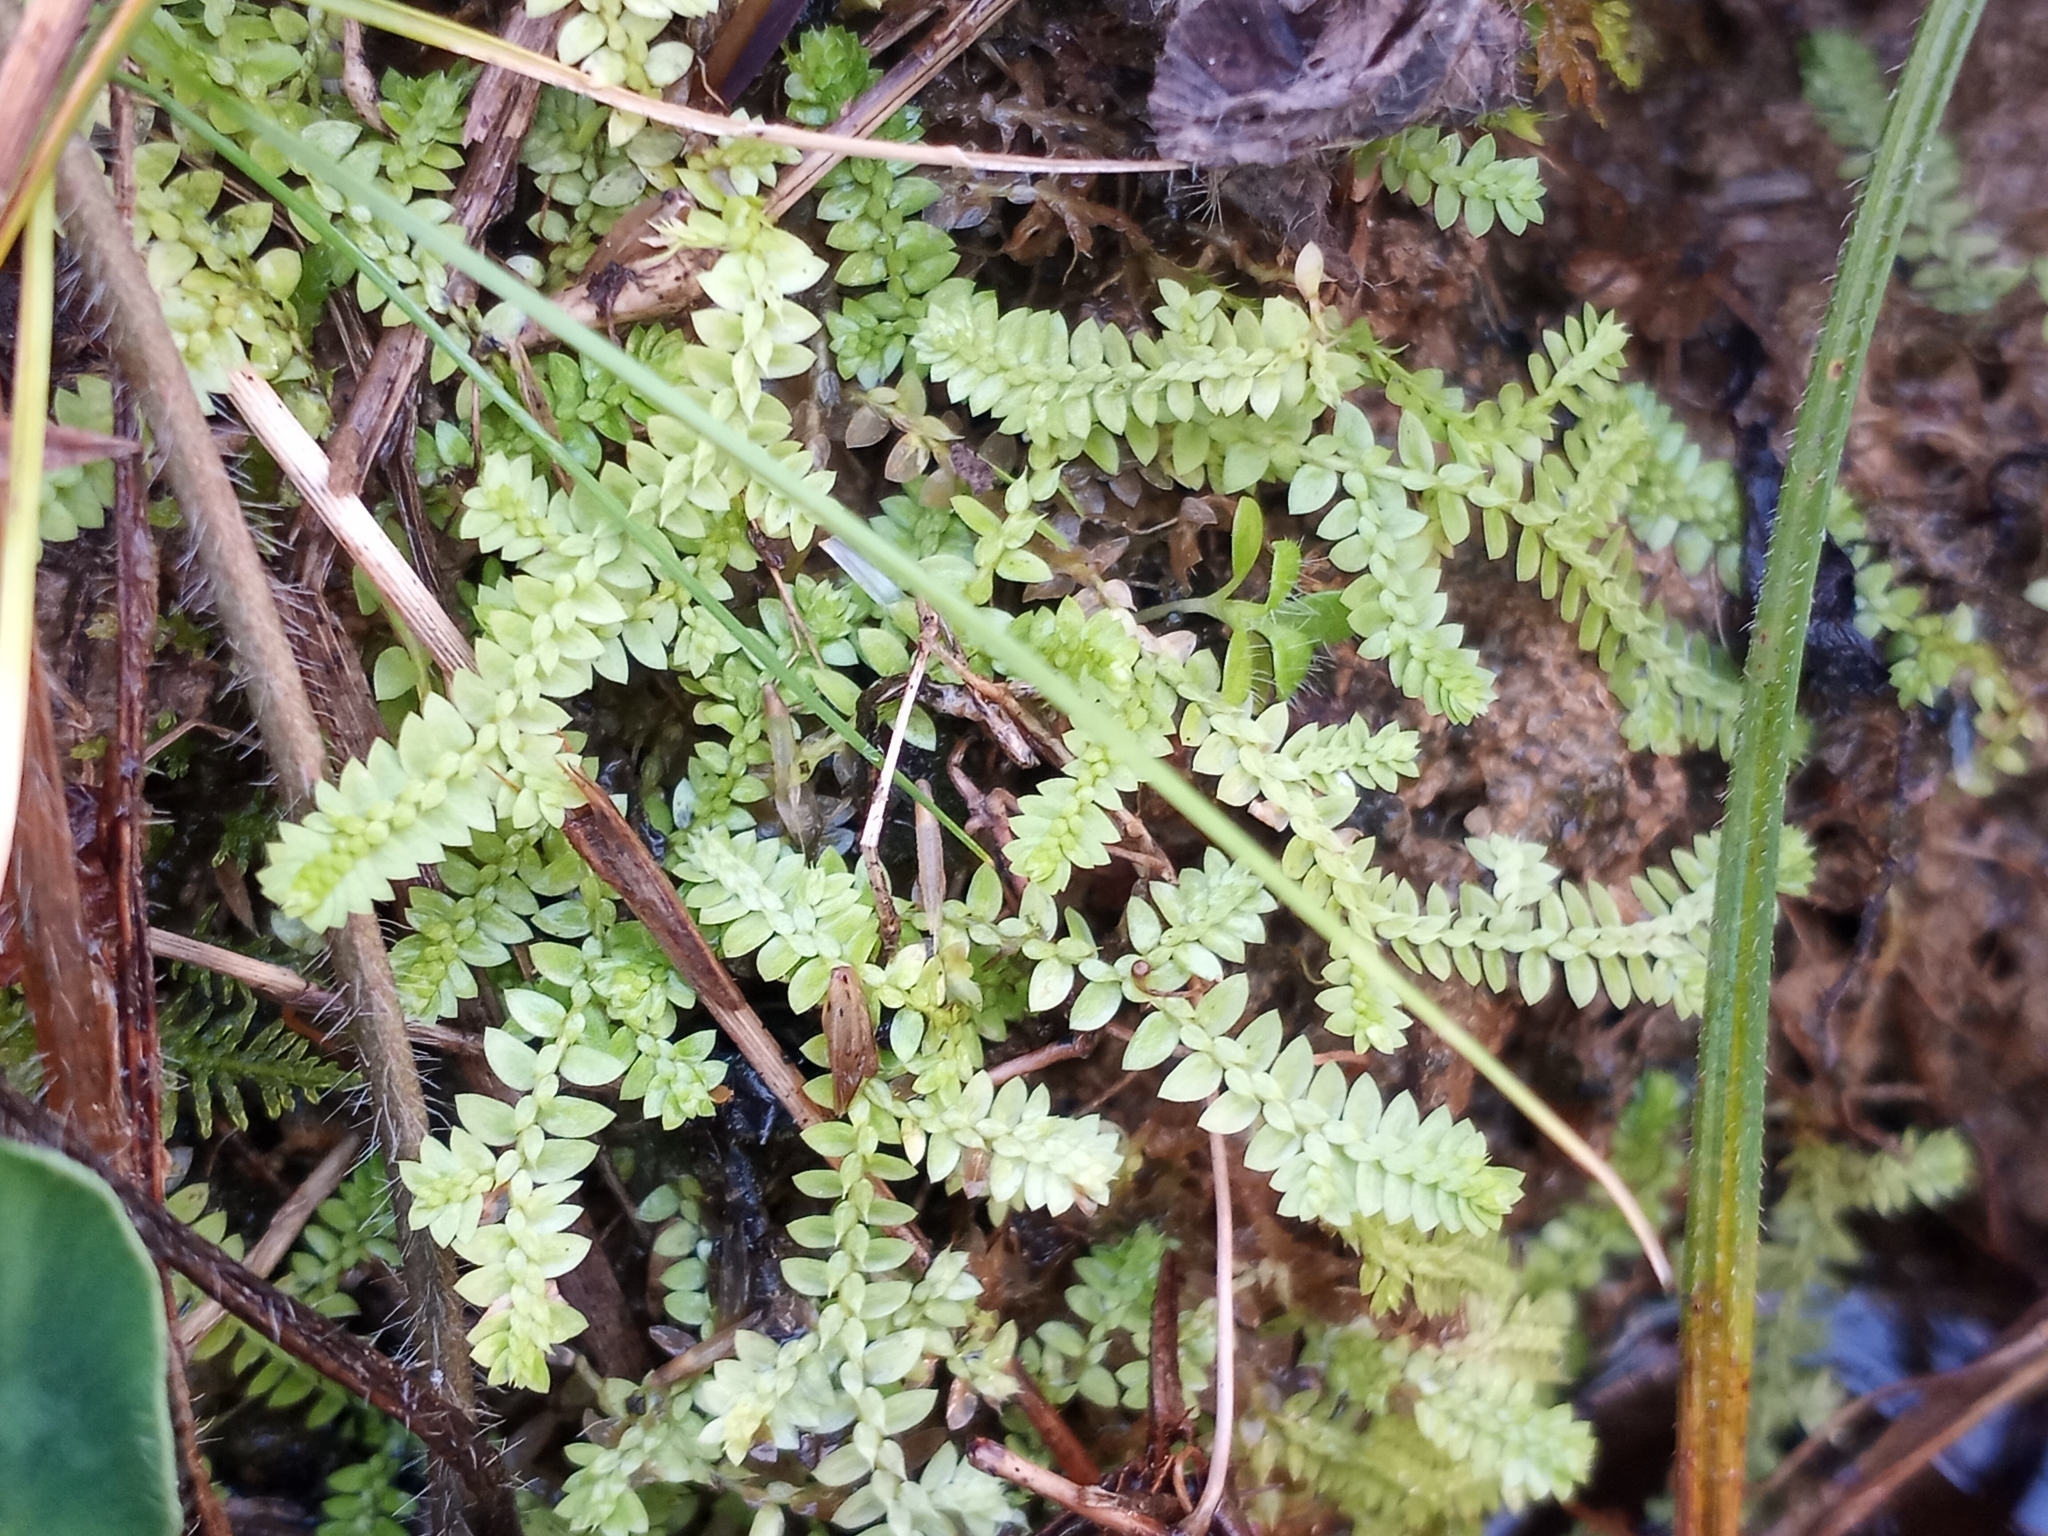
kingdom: Plantae
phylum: Tracheophyta
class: Lycopodiopsida
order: Selaginellales
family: Selaginellaceae
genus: Selaginella
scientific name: Selaginella apoda
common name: Creeping spikemoss
